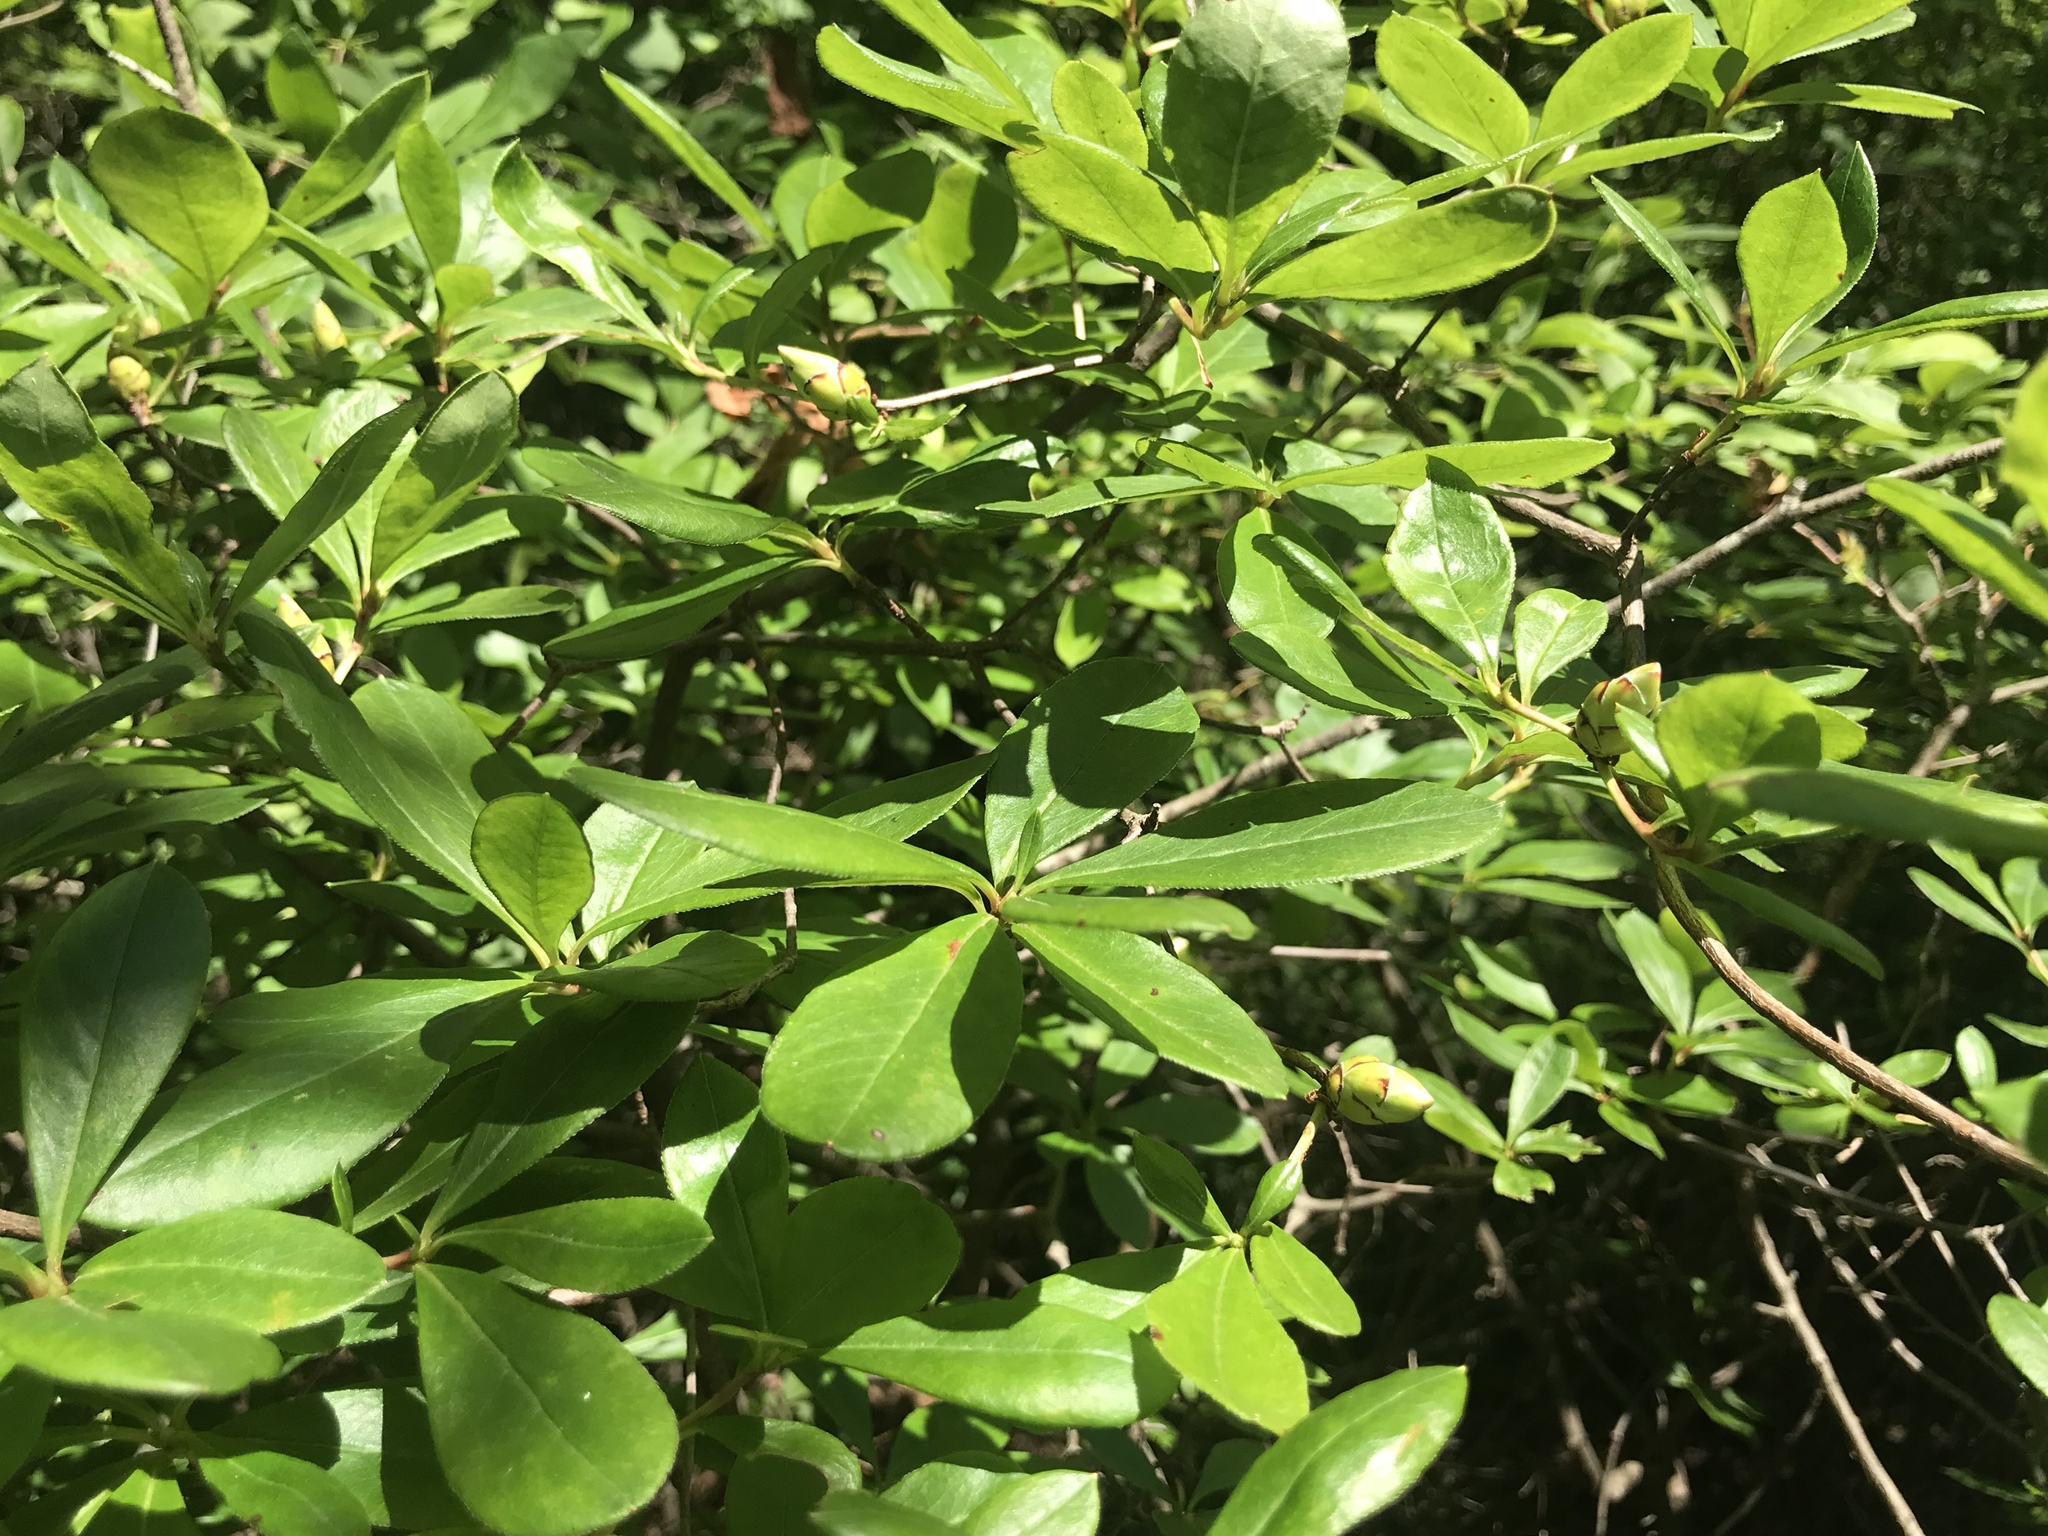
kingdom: Plantae
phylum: Tracheophyta
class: Magnoliopsida
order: Ericales
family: Ericaceae
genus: Rhododendron
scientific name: Rhododendron viscosum
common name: Clammy azalea
